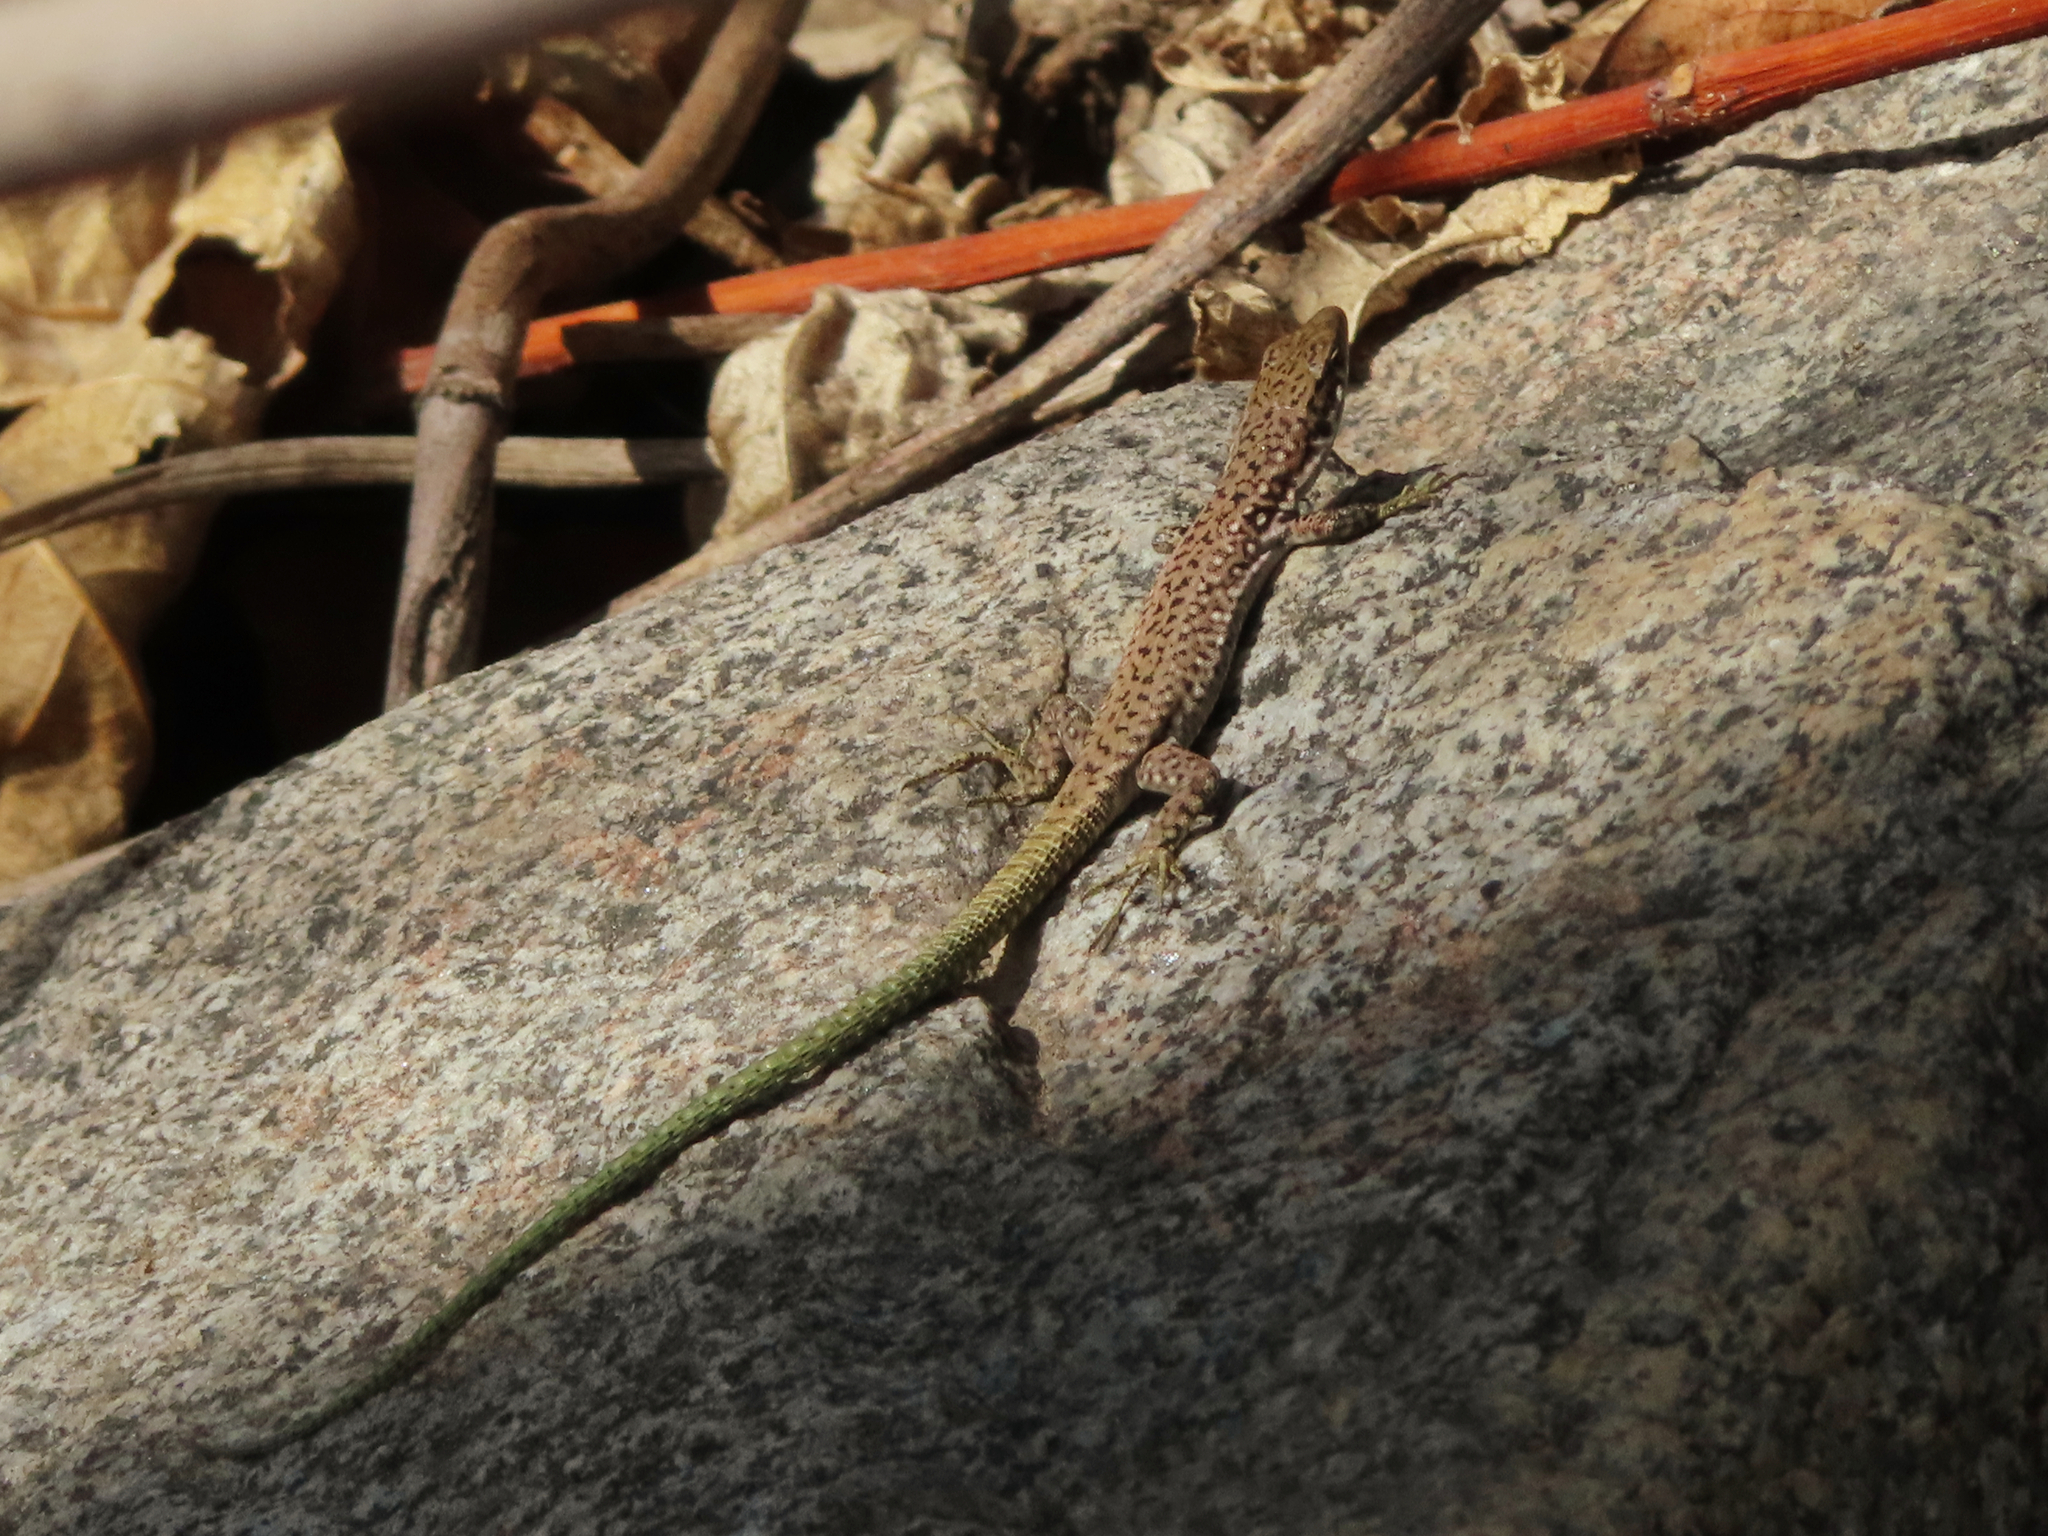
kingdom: Animalia
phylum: Chordata
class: Squamata
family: Lacertidae
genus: Darevskia
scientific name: Darevskia raddei
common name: Radde's lizard
